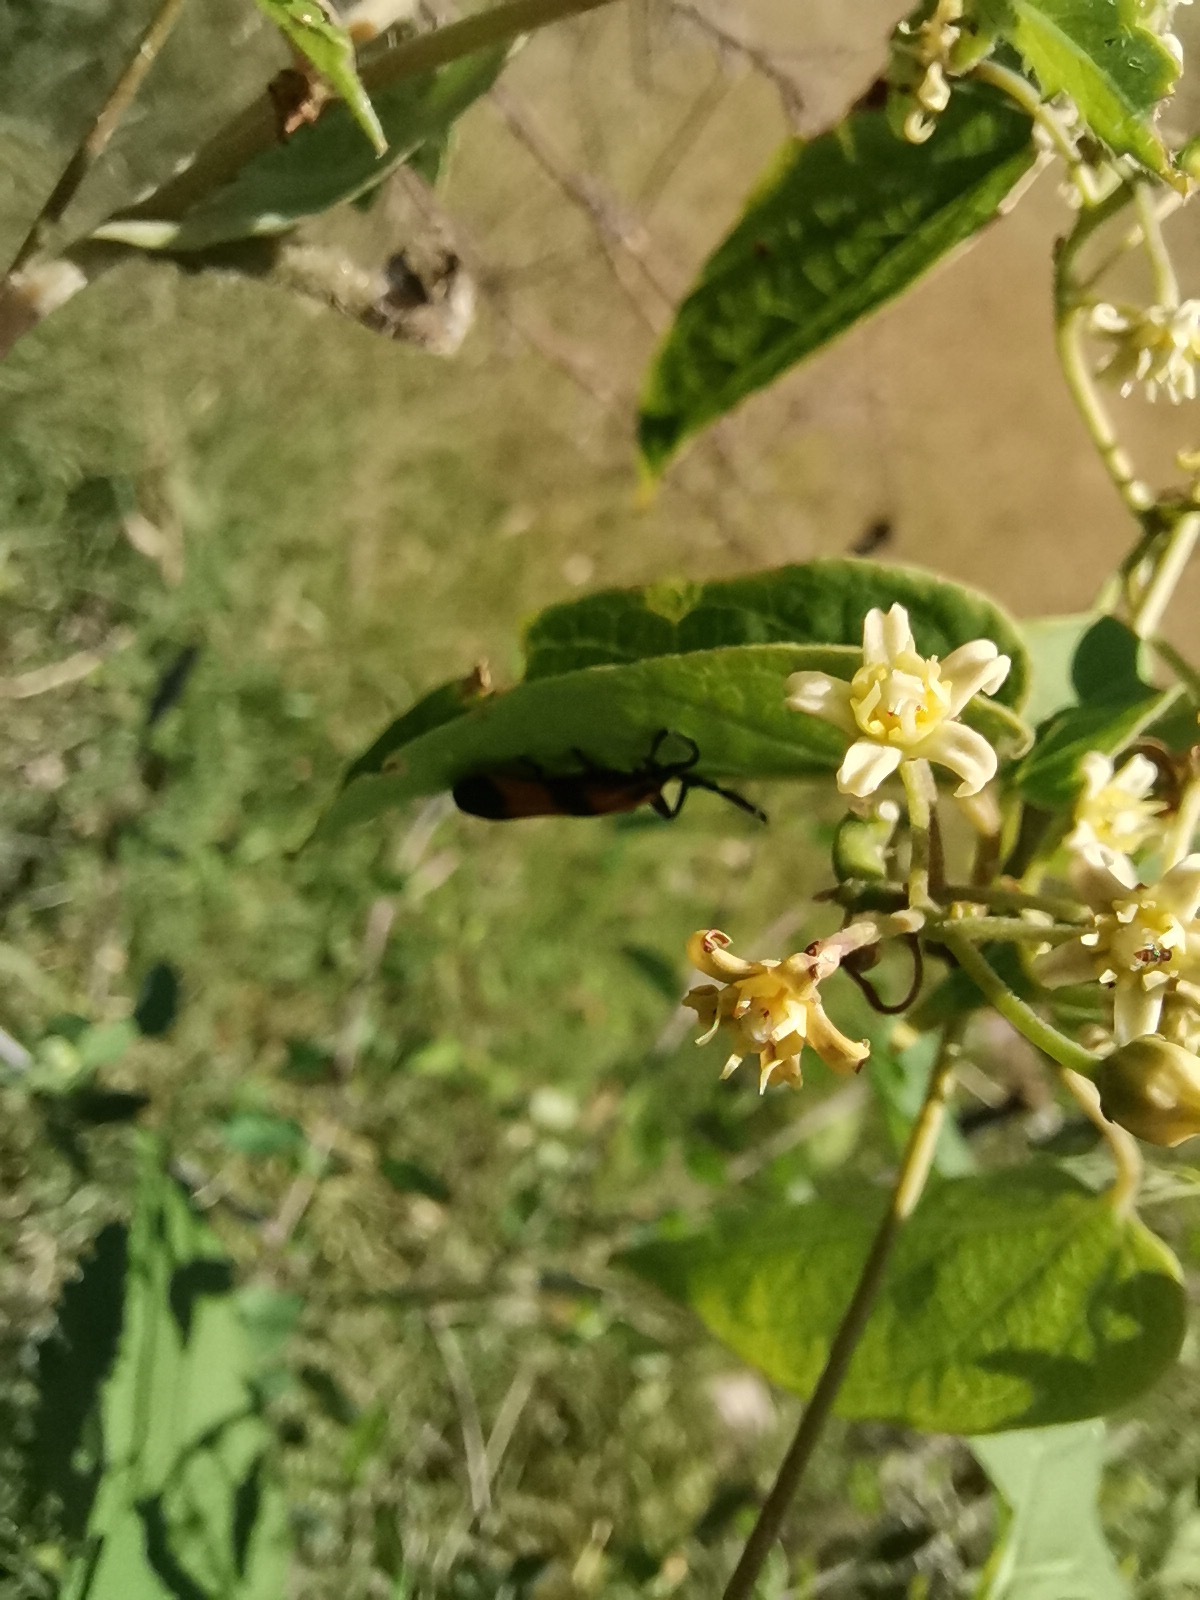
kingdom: Plantae
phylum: Tracheophyta
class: Magnoliopsida
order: Gentianales
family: Apocynaceae
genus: Cynanchum
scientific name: Cynanchum foetidum
